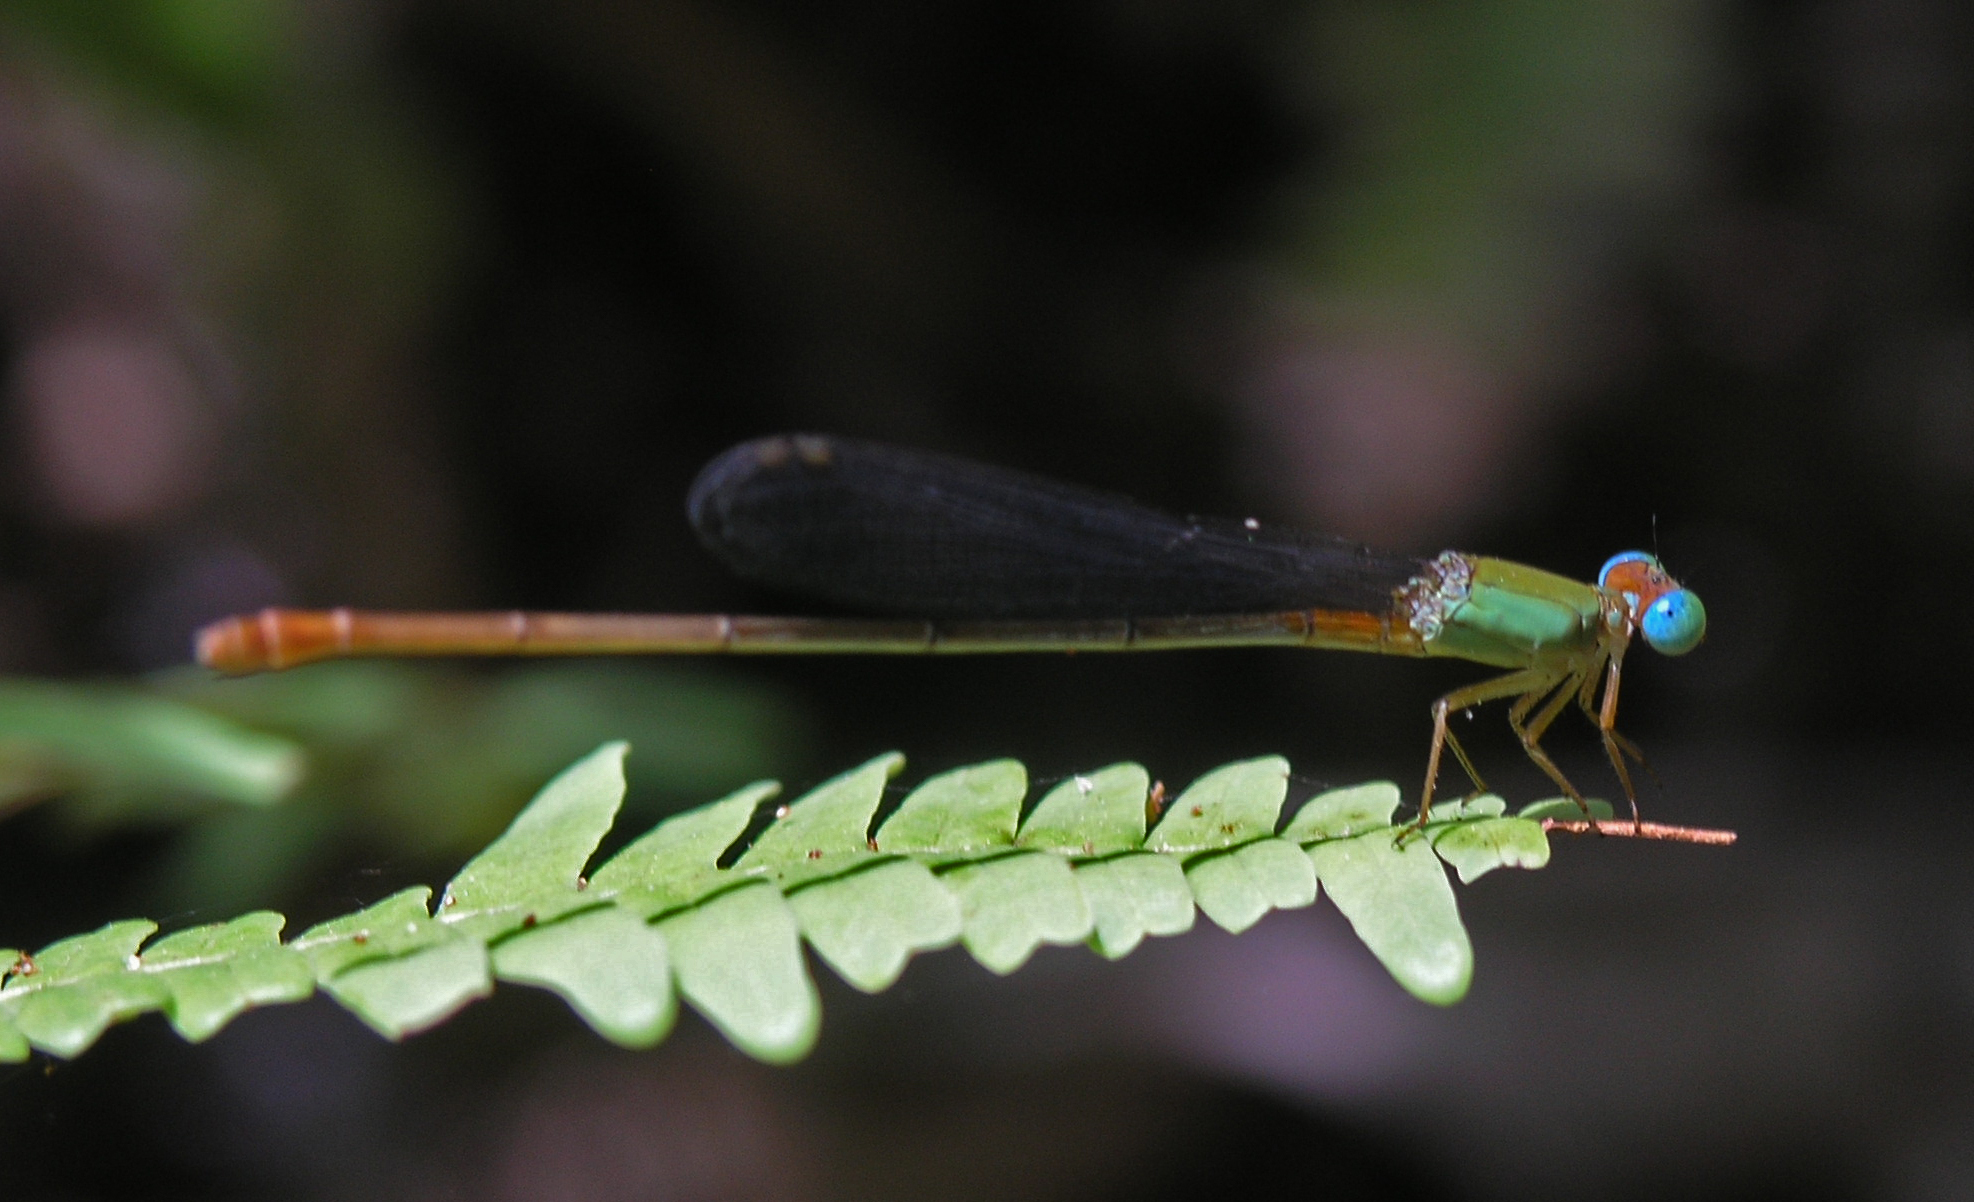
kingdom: Animalia
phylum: Arthropoda
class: Insecta
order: Odonata
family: Coenagrionidae
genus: Ceriagrion
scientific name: Ceriagrion cerinorubellum
